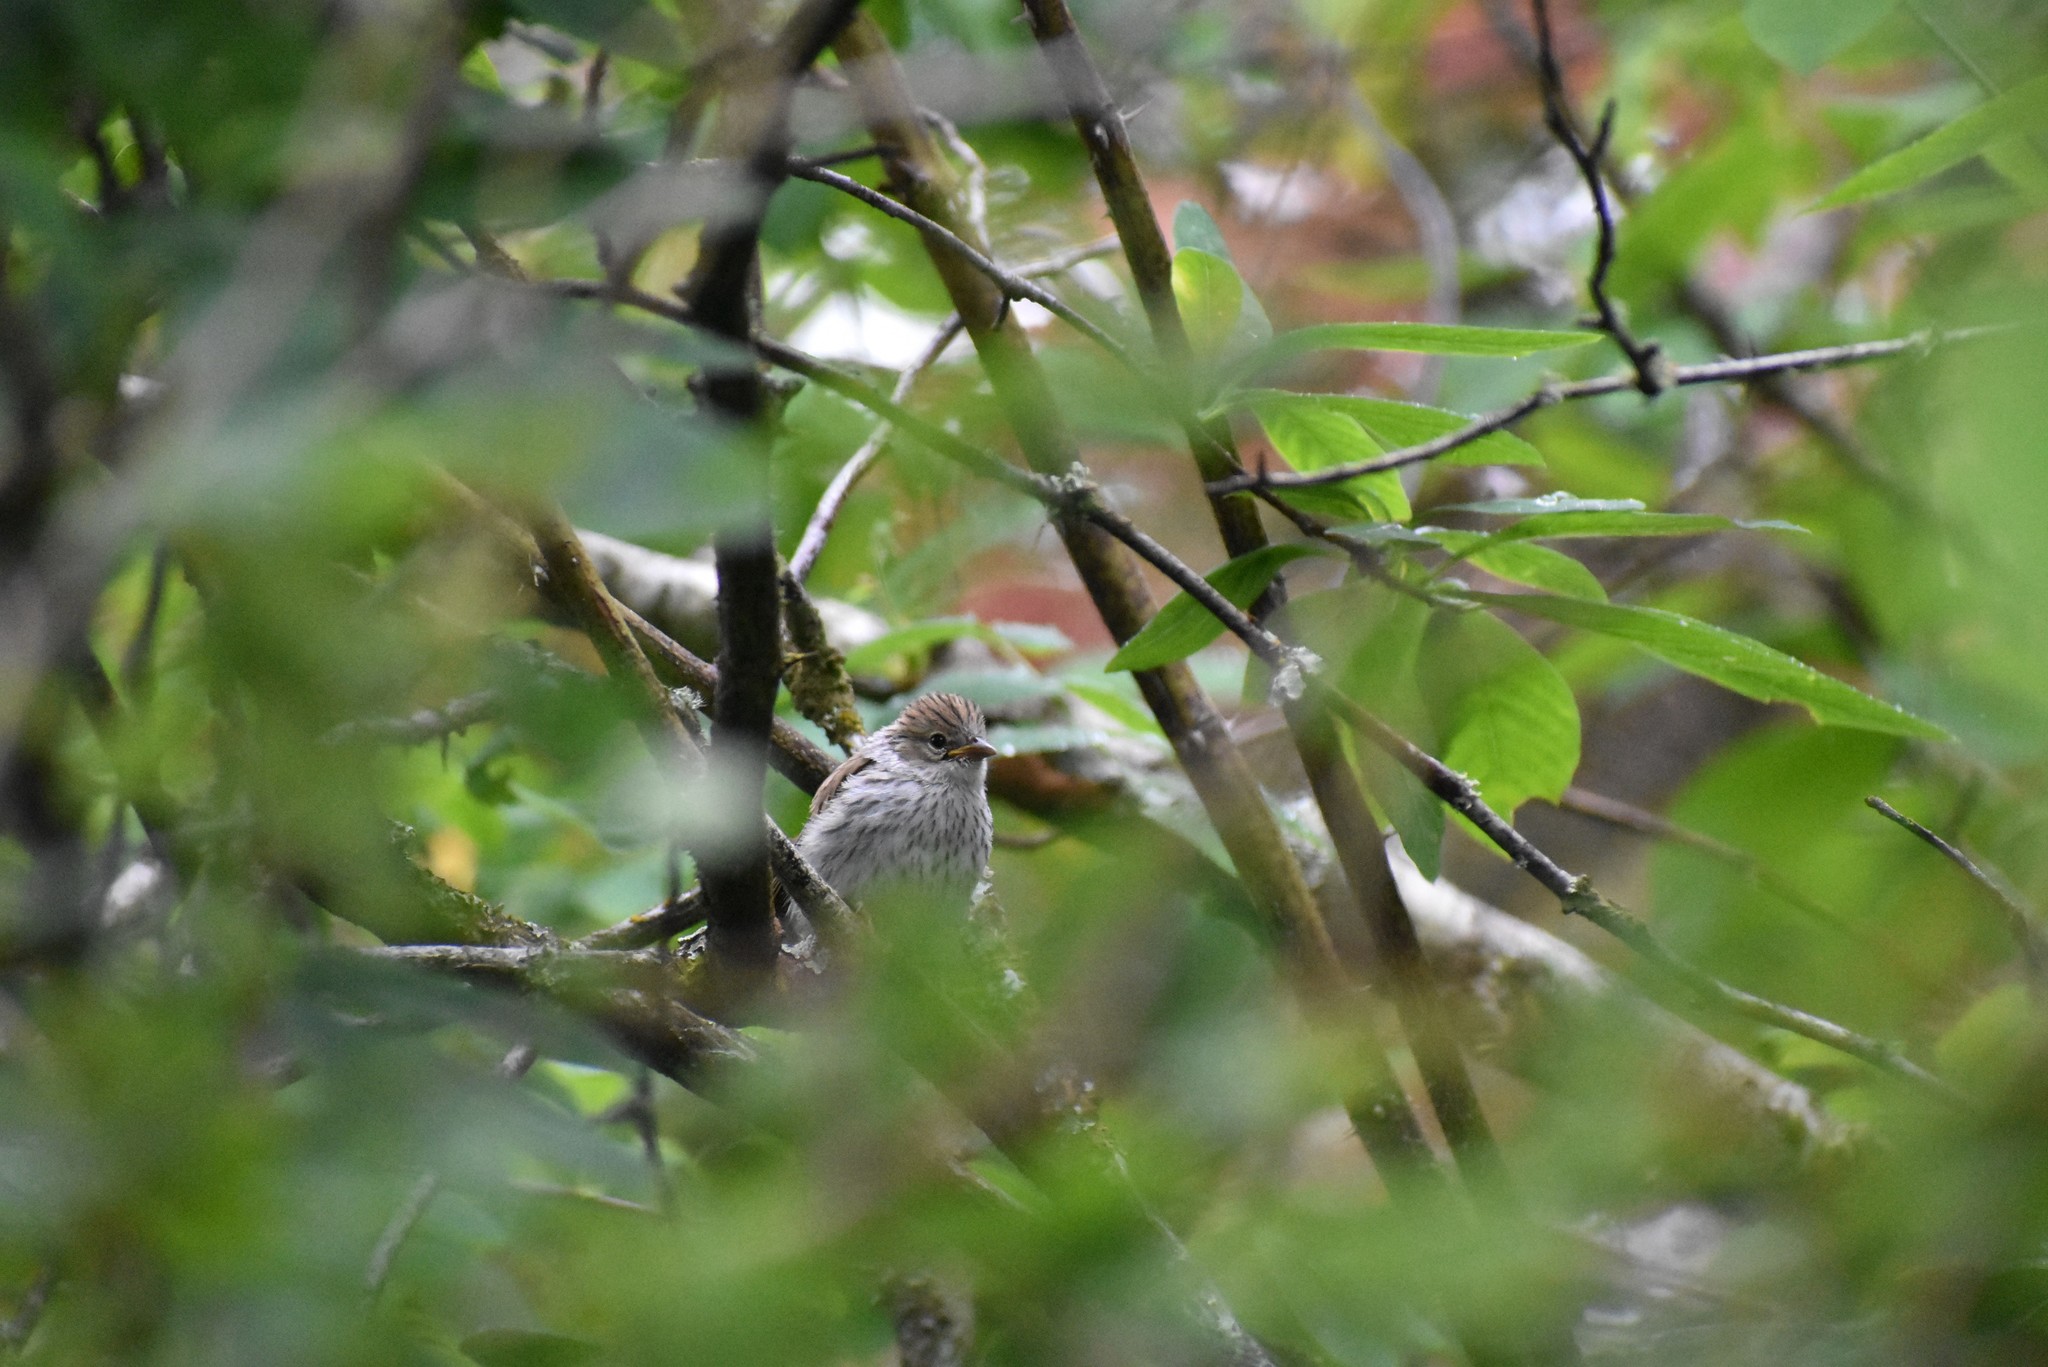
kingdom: Animalia
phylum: Chordata
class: Aves
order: Passeriformes
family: Passerellidae
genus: Spizella
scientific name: Spizella passerina
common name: Chipping sparrow
